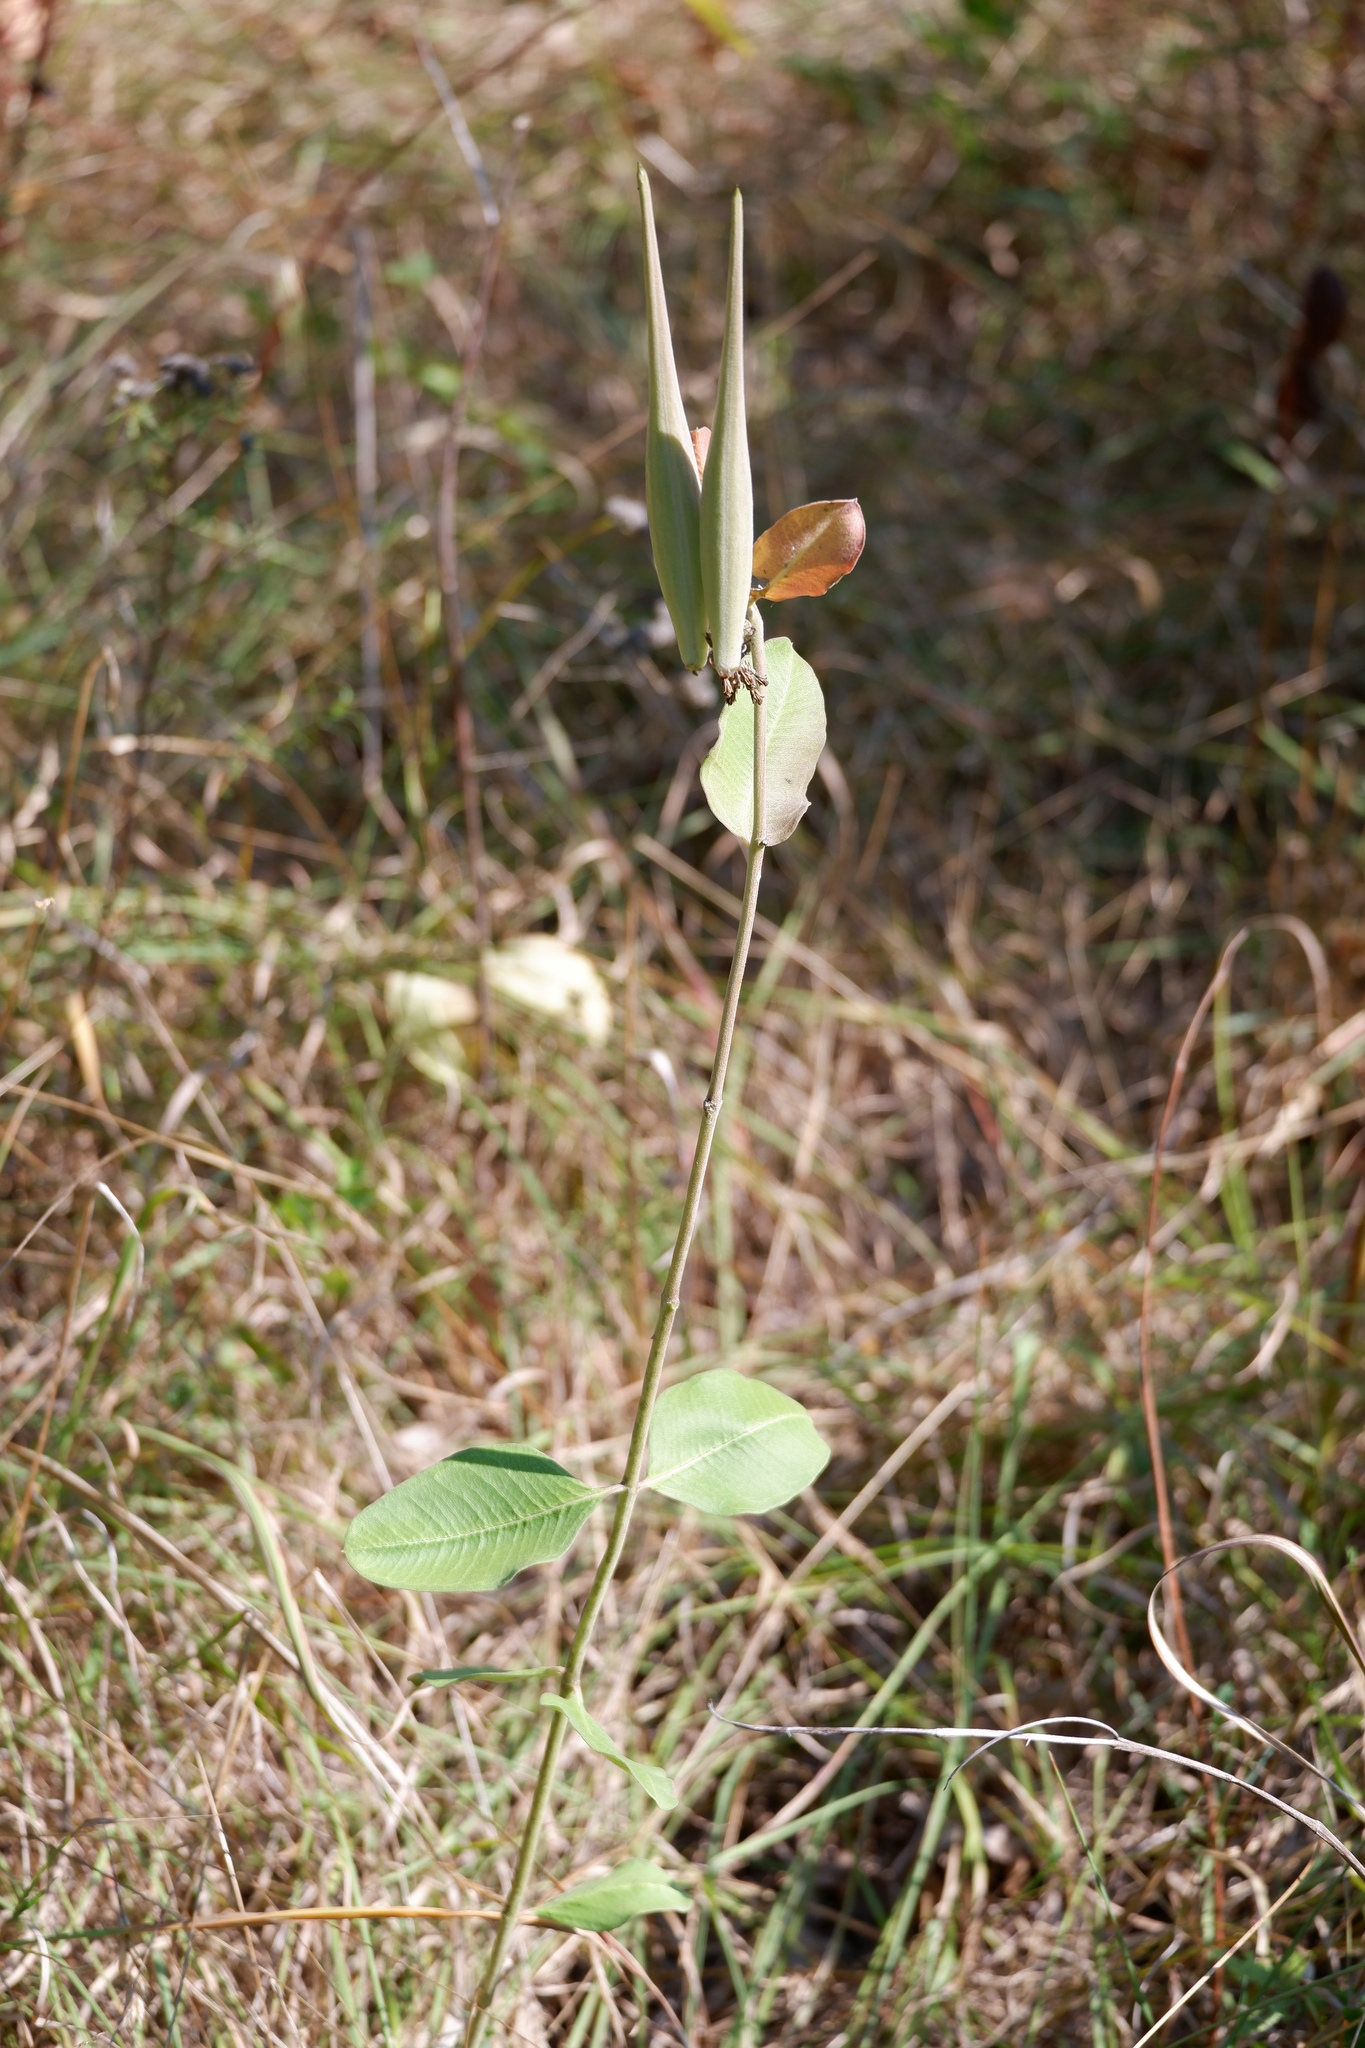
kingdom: Plantae
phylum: Tracheophyta
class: Magnoliopsida
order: Gentianales
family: Apocynaceae
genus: Asclepias
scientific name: Asclepias viridiflora
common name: Green comet milkweed
